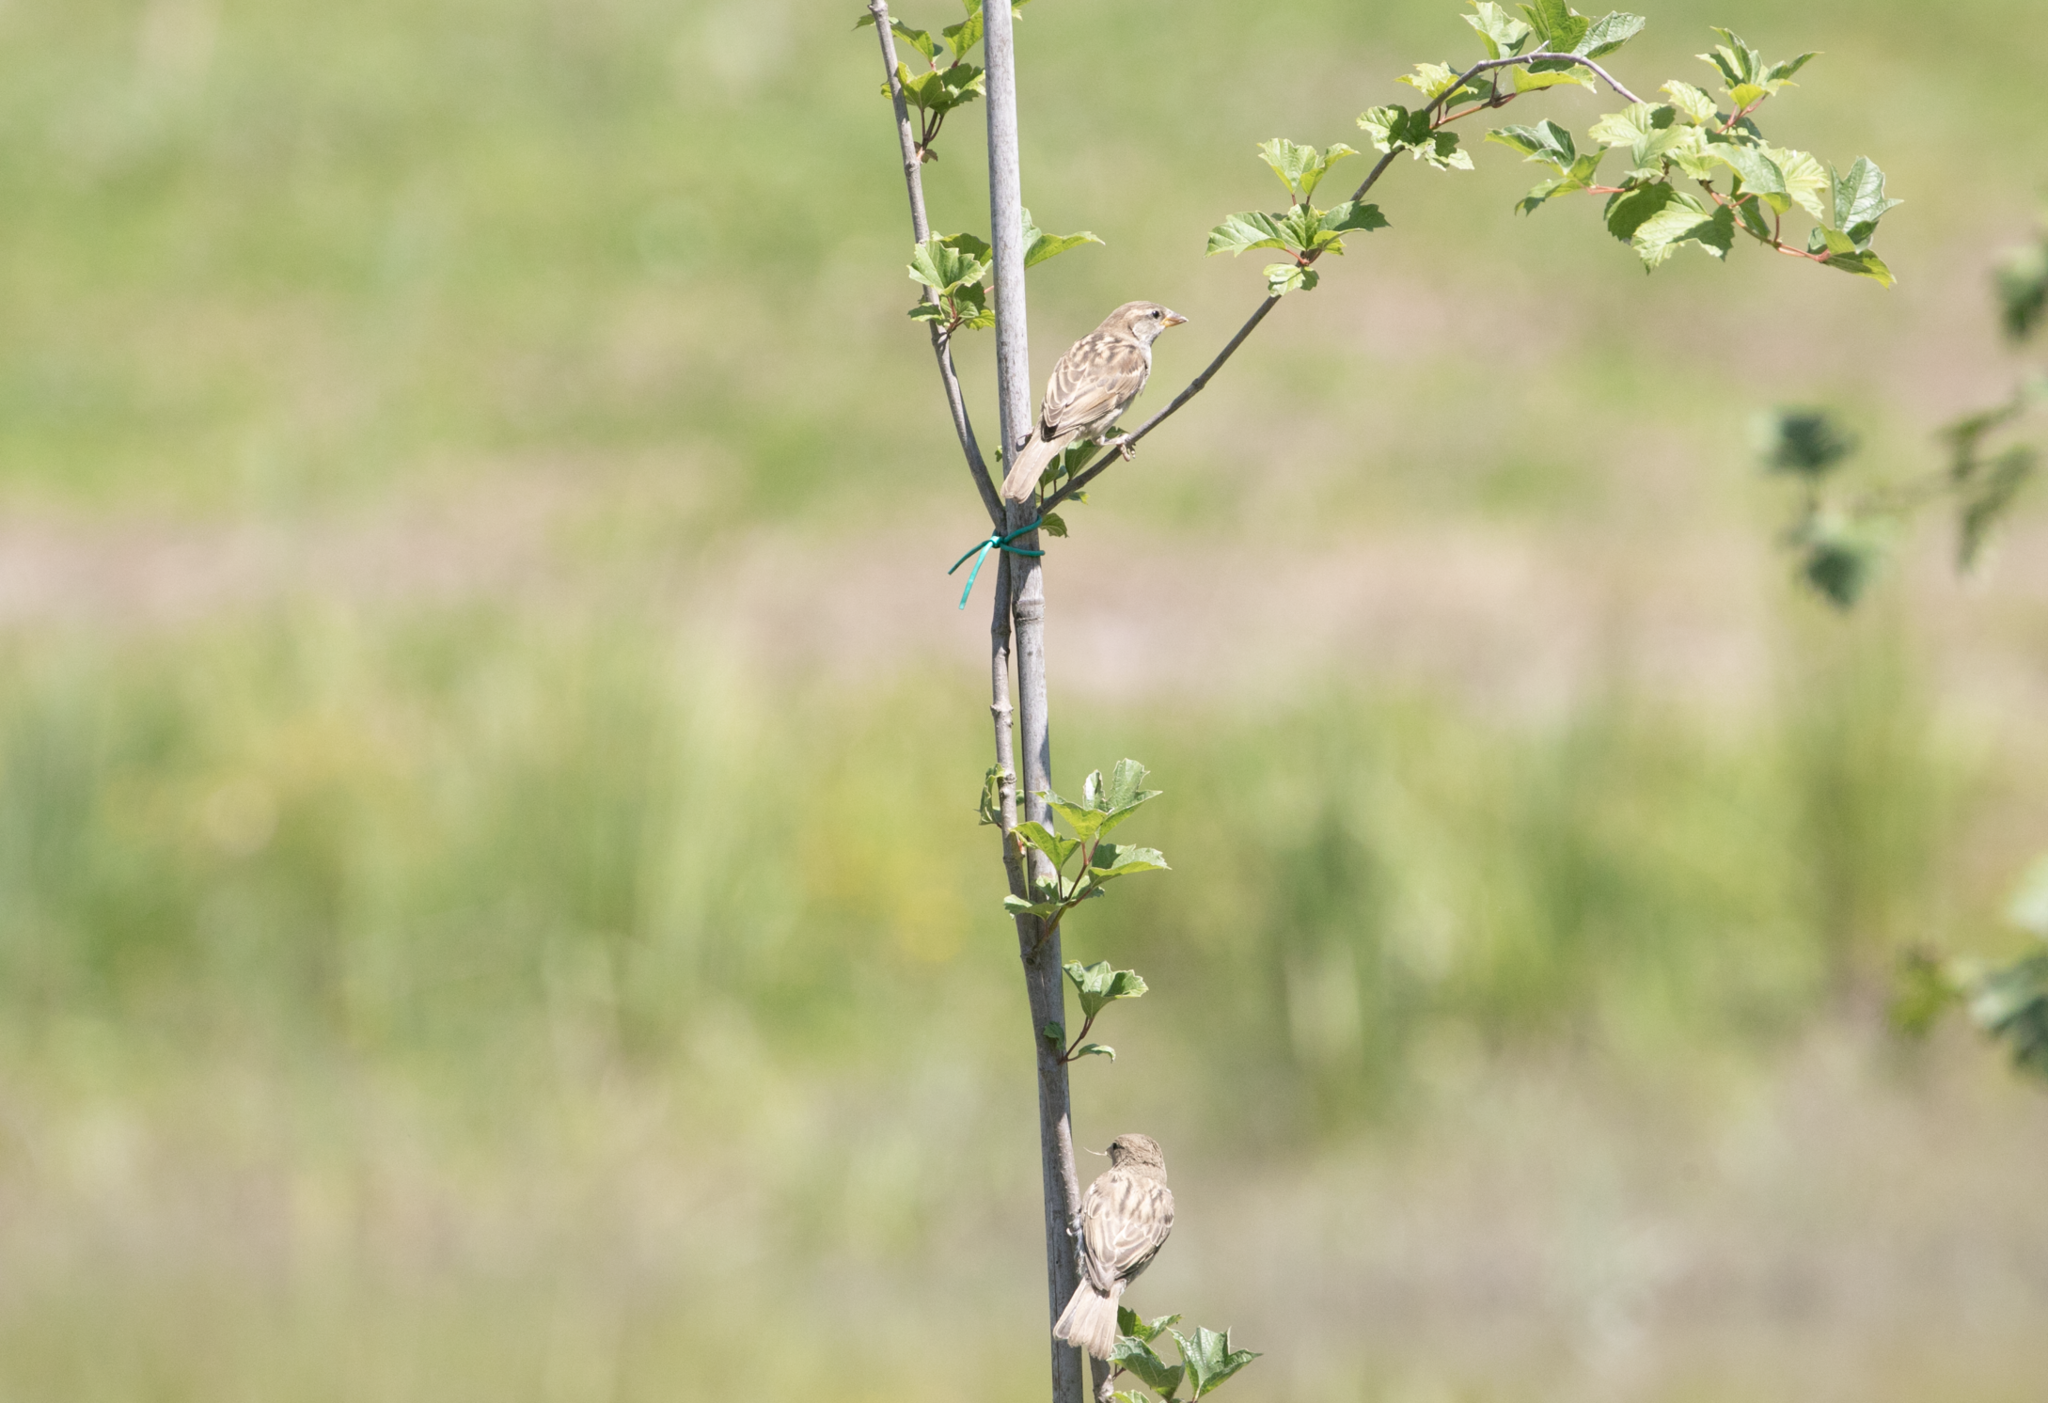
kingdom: Animalia
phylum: Chordata
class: Aves
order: Passeriformes
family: Passeridae
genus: Passer
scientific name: Passer italiae
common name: Italian sparrow
